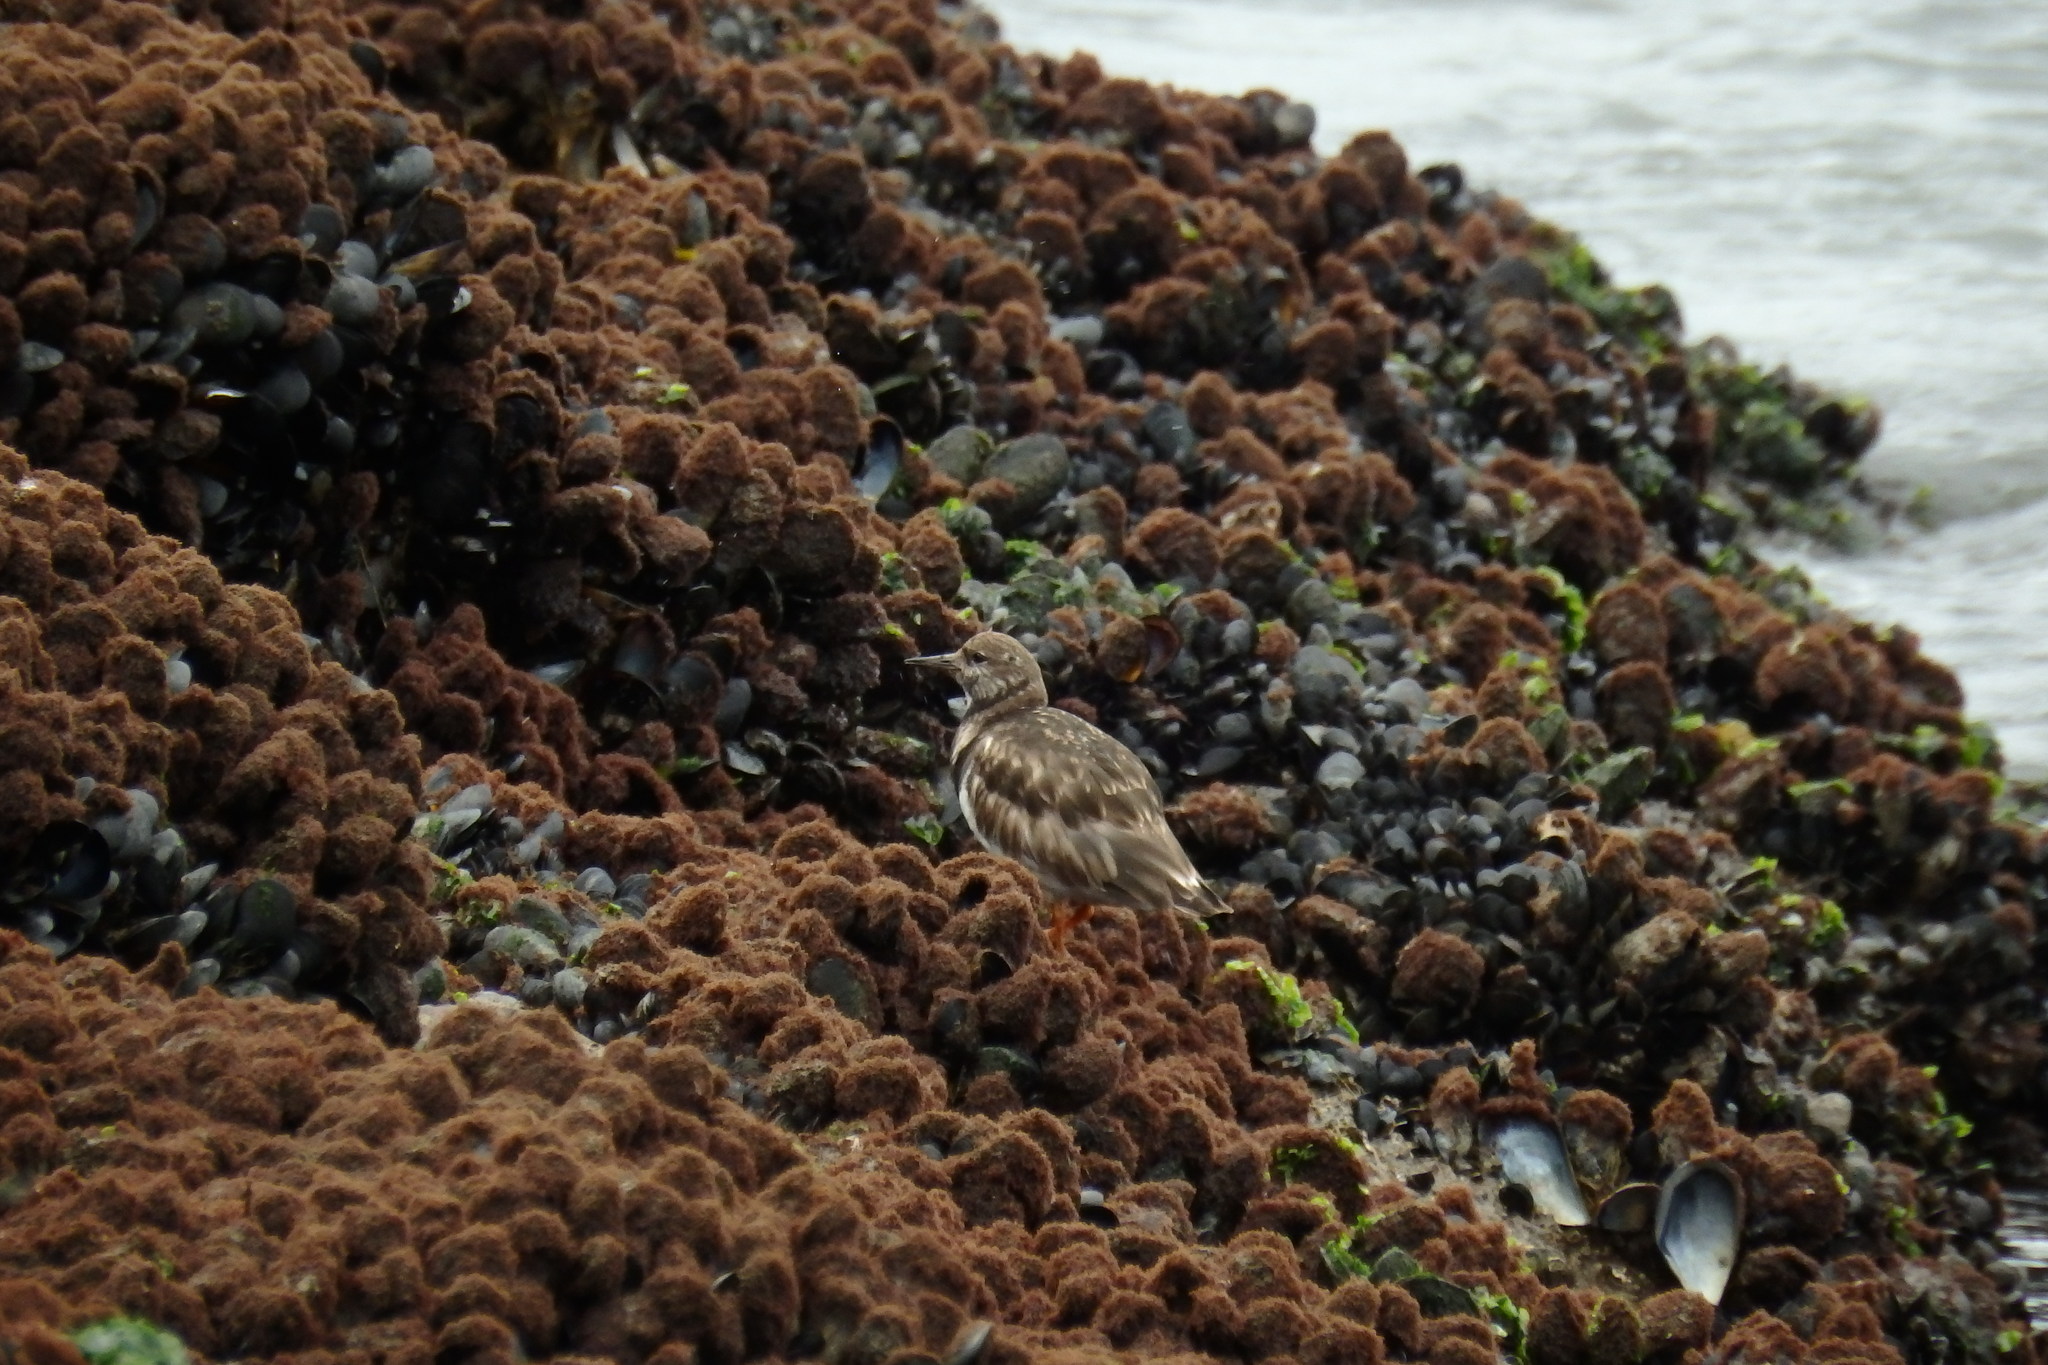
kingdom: Animalia
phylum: Chordata
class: Aves
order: Charadriiformes
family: Scolopacidae
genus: Arenaria
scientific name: Arenaria interpres
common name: Ruddy turnstone
